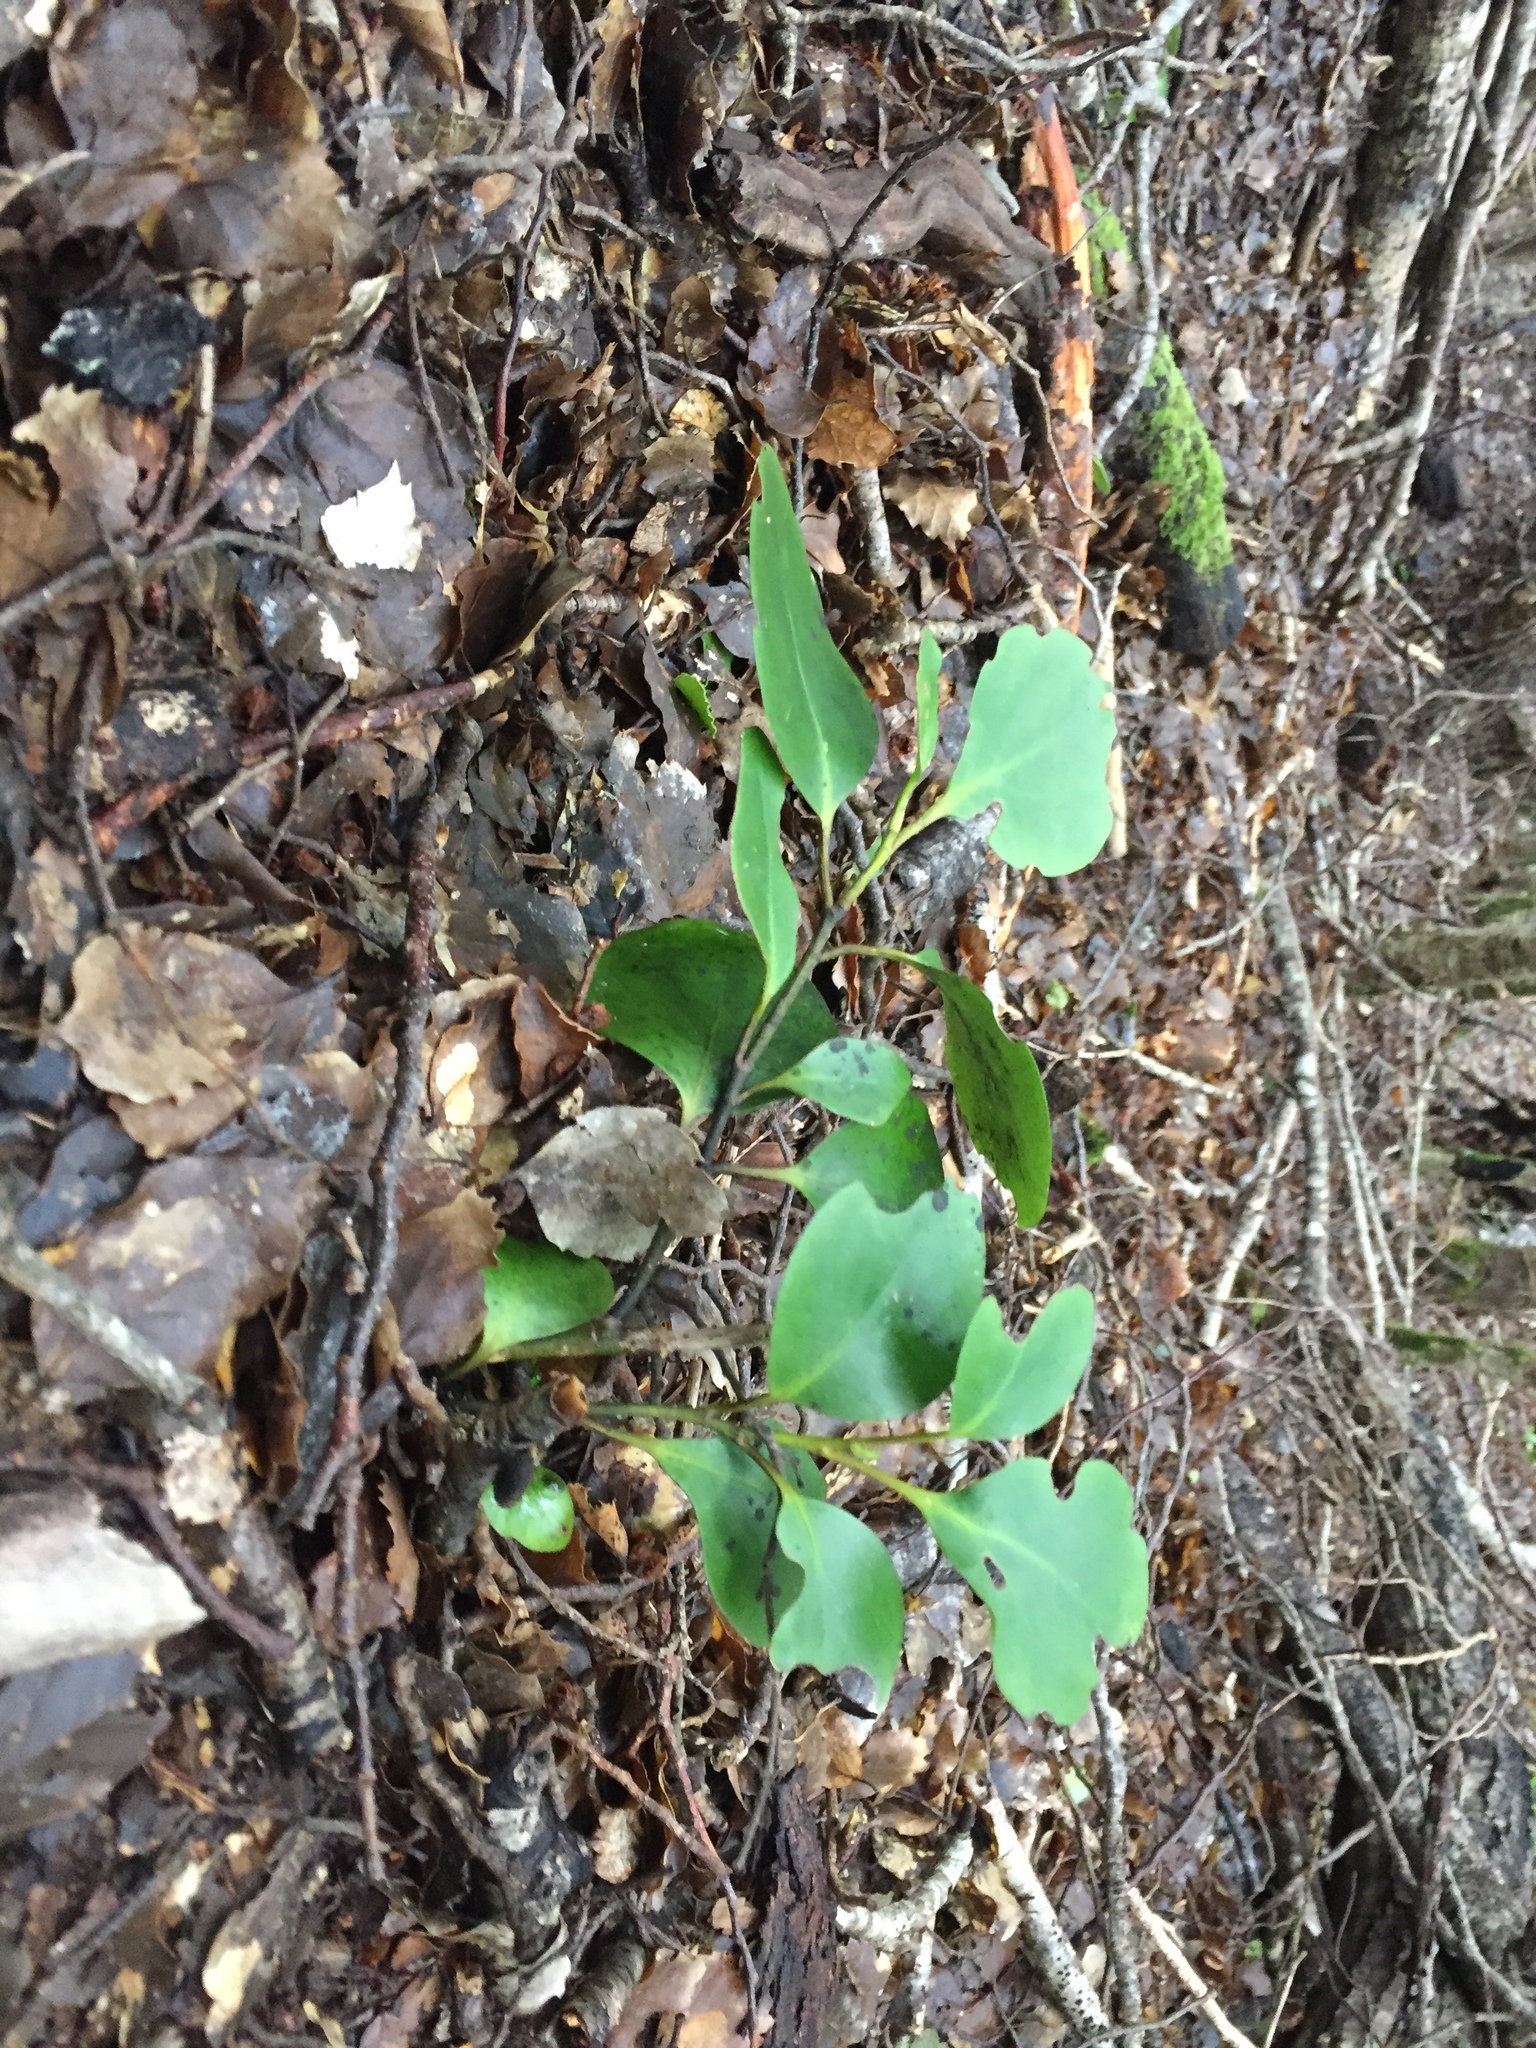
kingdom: Plantae
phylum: Tracheophyta
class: Magnoliopsida
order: Apiales
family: Griseliniaceae
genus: Griselinia
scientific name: Griselinia littoralis
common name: New zealand broadleaf
